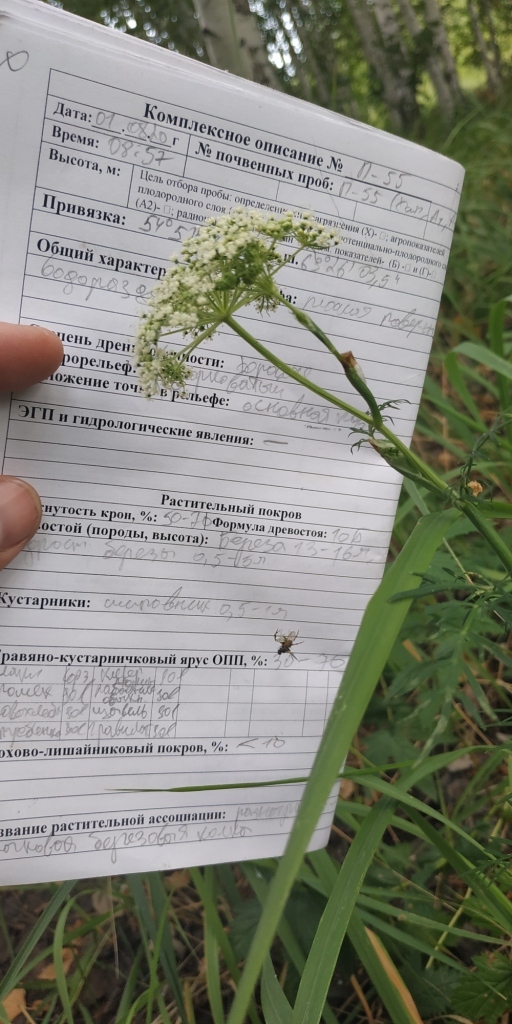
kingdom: Plantae
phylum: Tracheophyta
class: Magnoliopsida
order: Apiales
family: Apiaceae
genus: Kadenia
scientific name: Kadenia dubia
